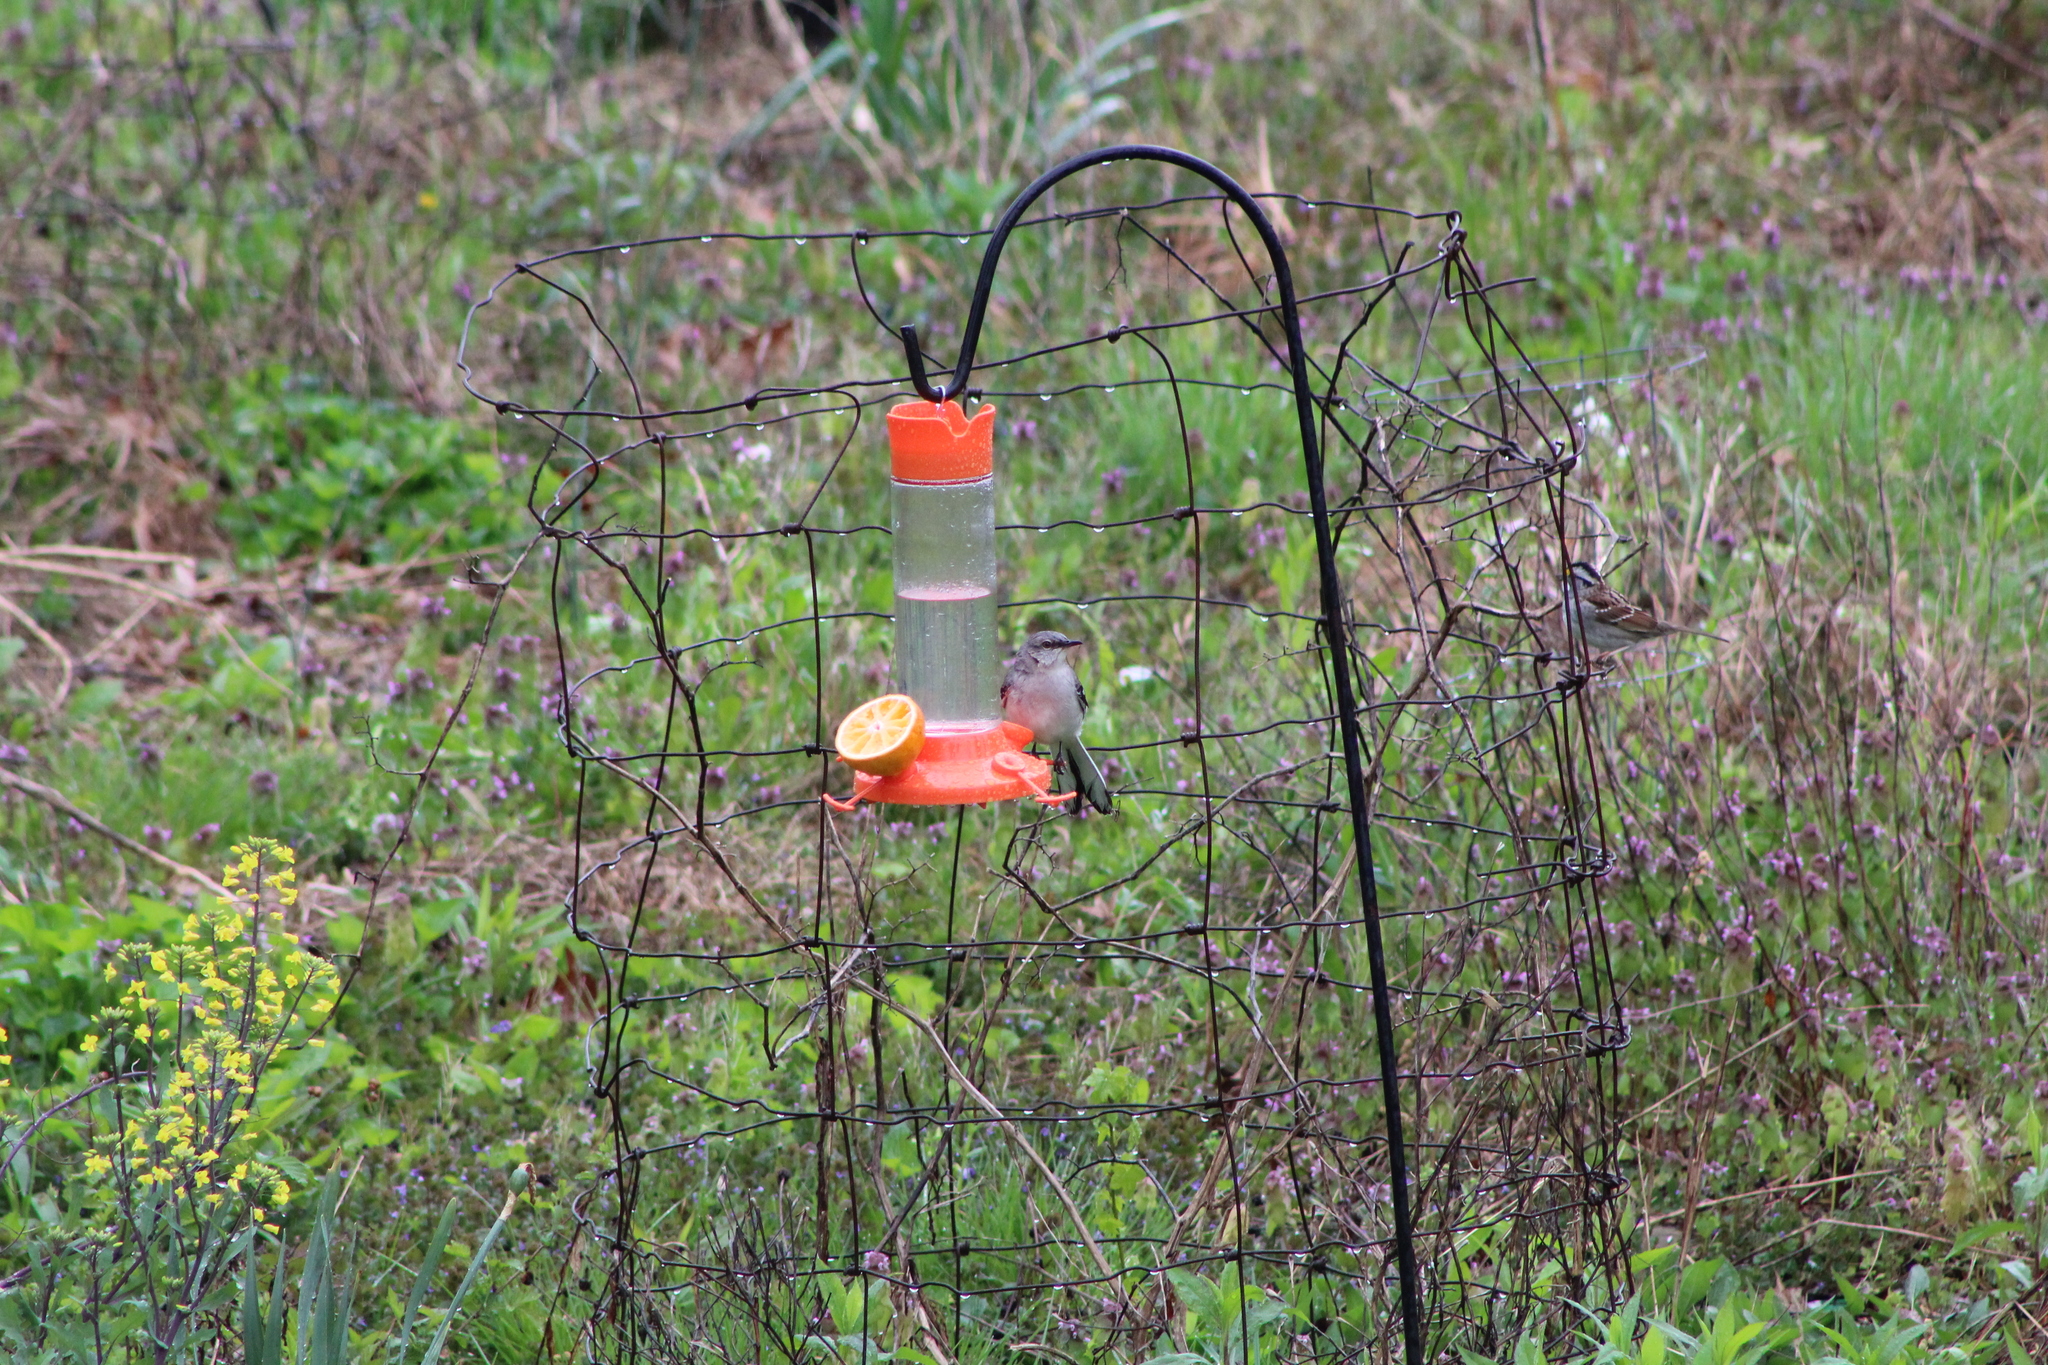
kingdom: Animalia
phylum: Chordata
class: Aves
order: Passeriformes
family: Mimidae
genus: Mimus
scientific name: Mimus polyglottos
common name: Northern mockingbird
